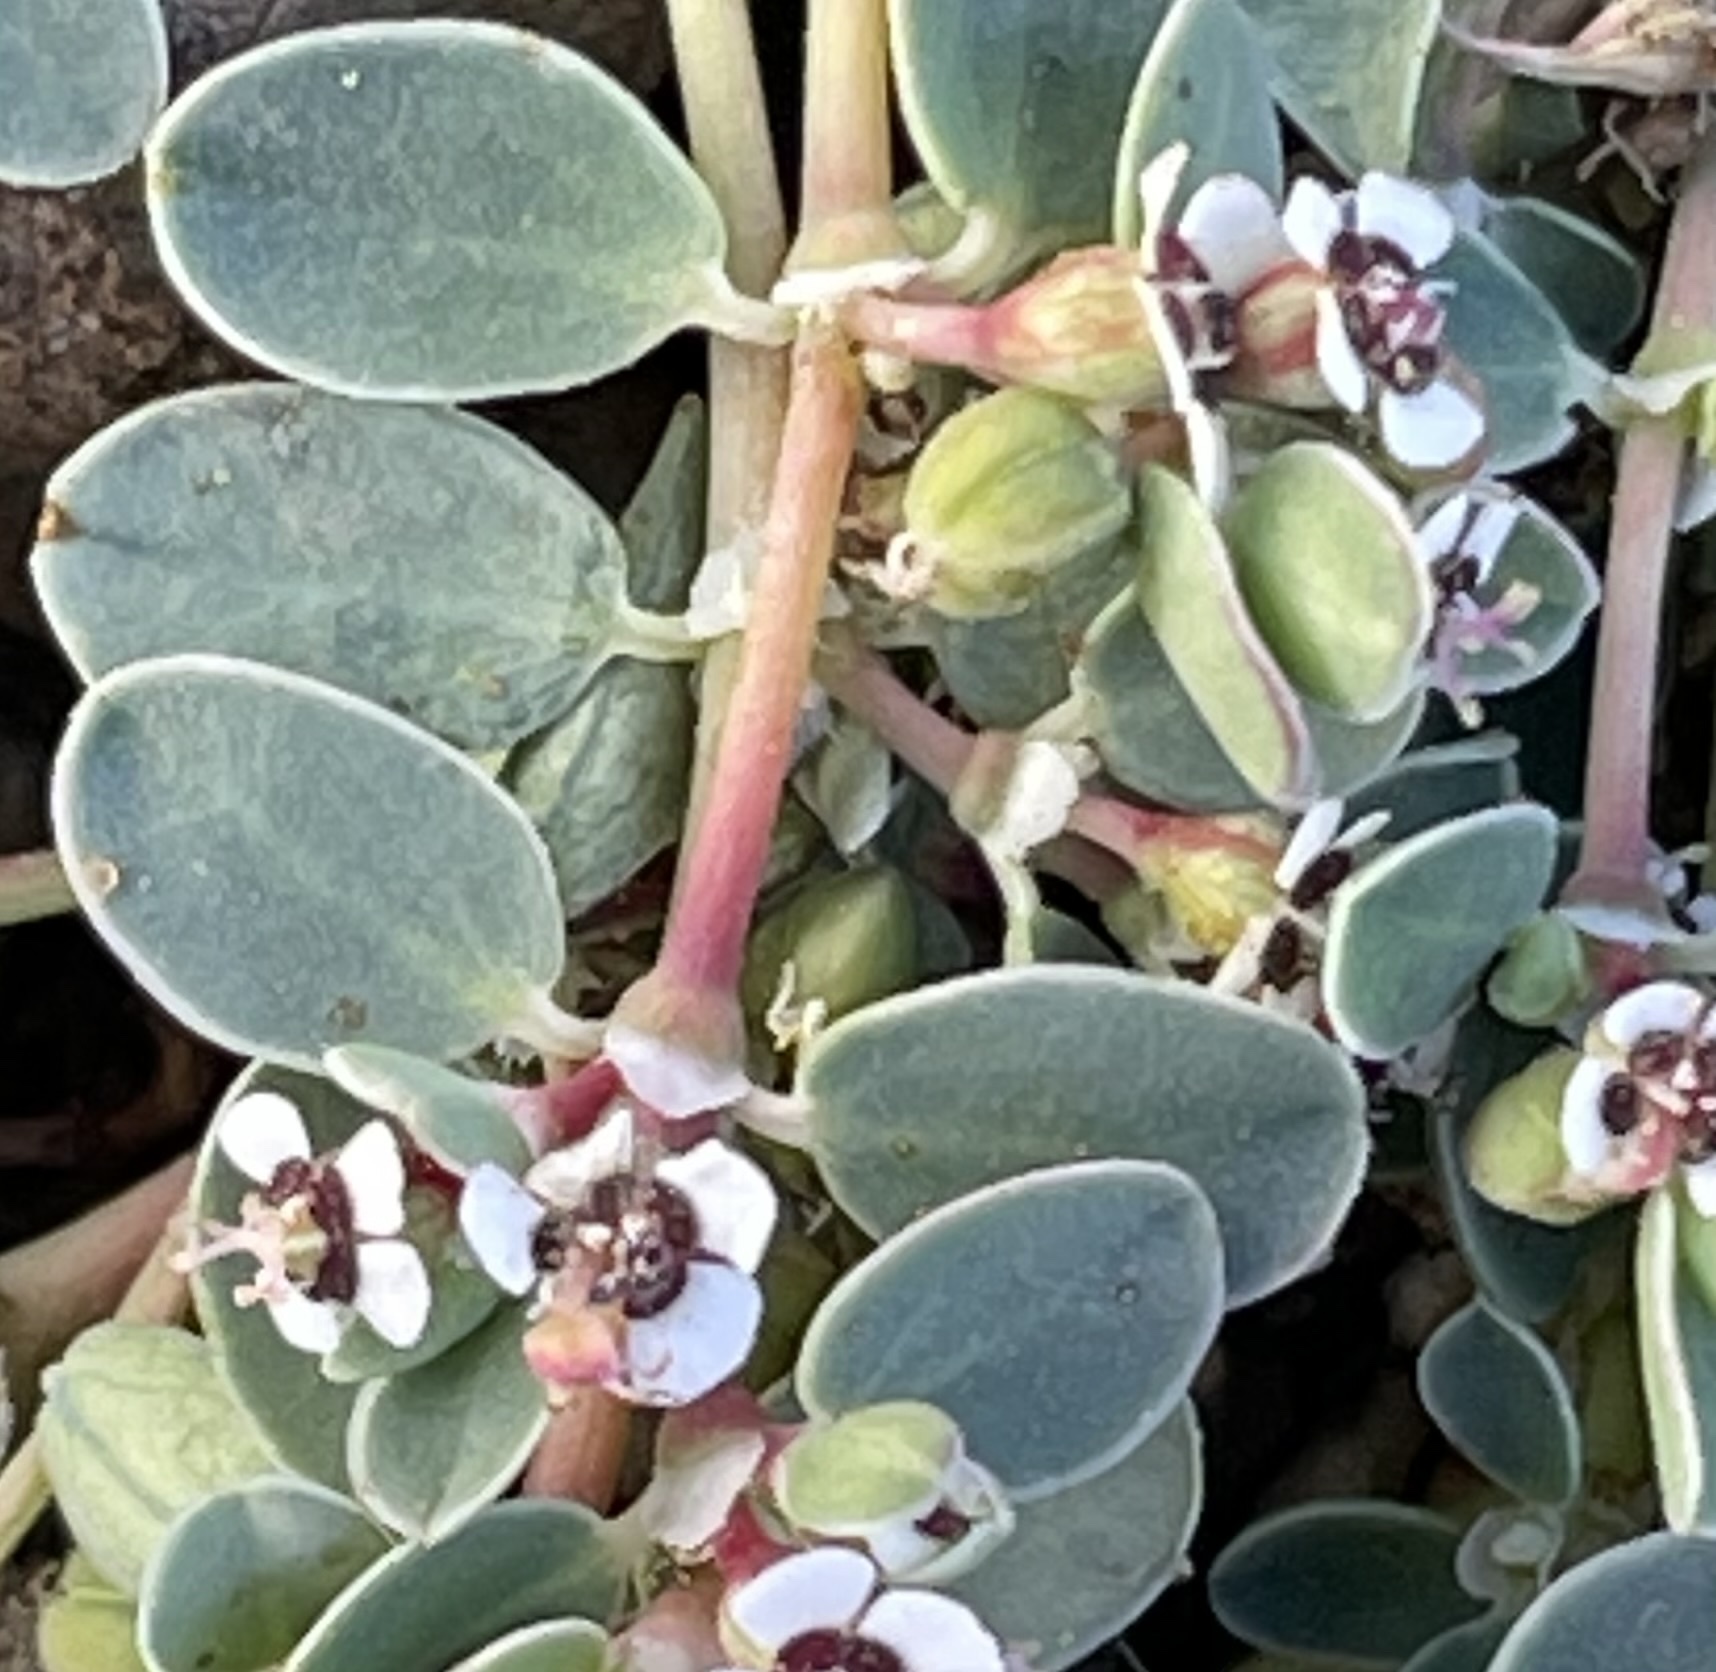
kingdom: Plantae
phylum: Tracheophyta
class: Magnoliopsida
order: Malpighiales
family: Euphorbiaceae
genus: Euphorbia
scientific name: Euphorbia albomarginata
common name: Whitemargin sandmat
